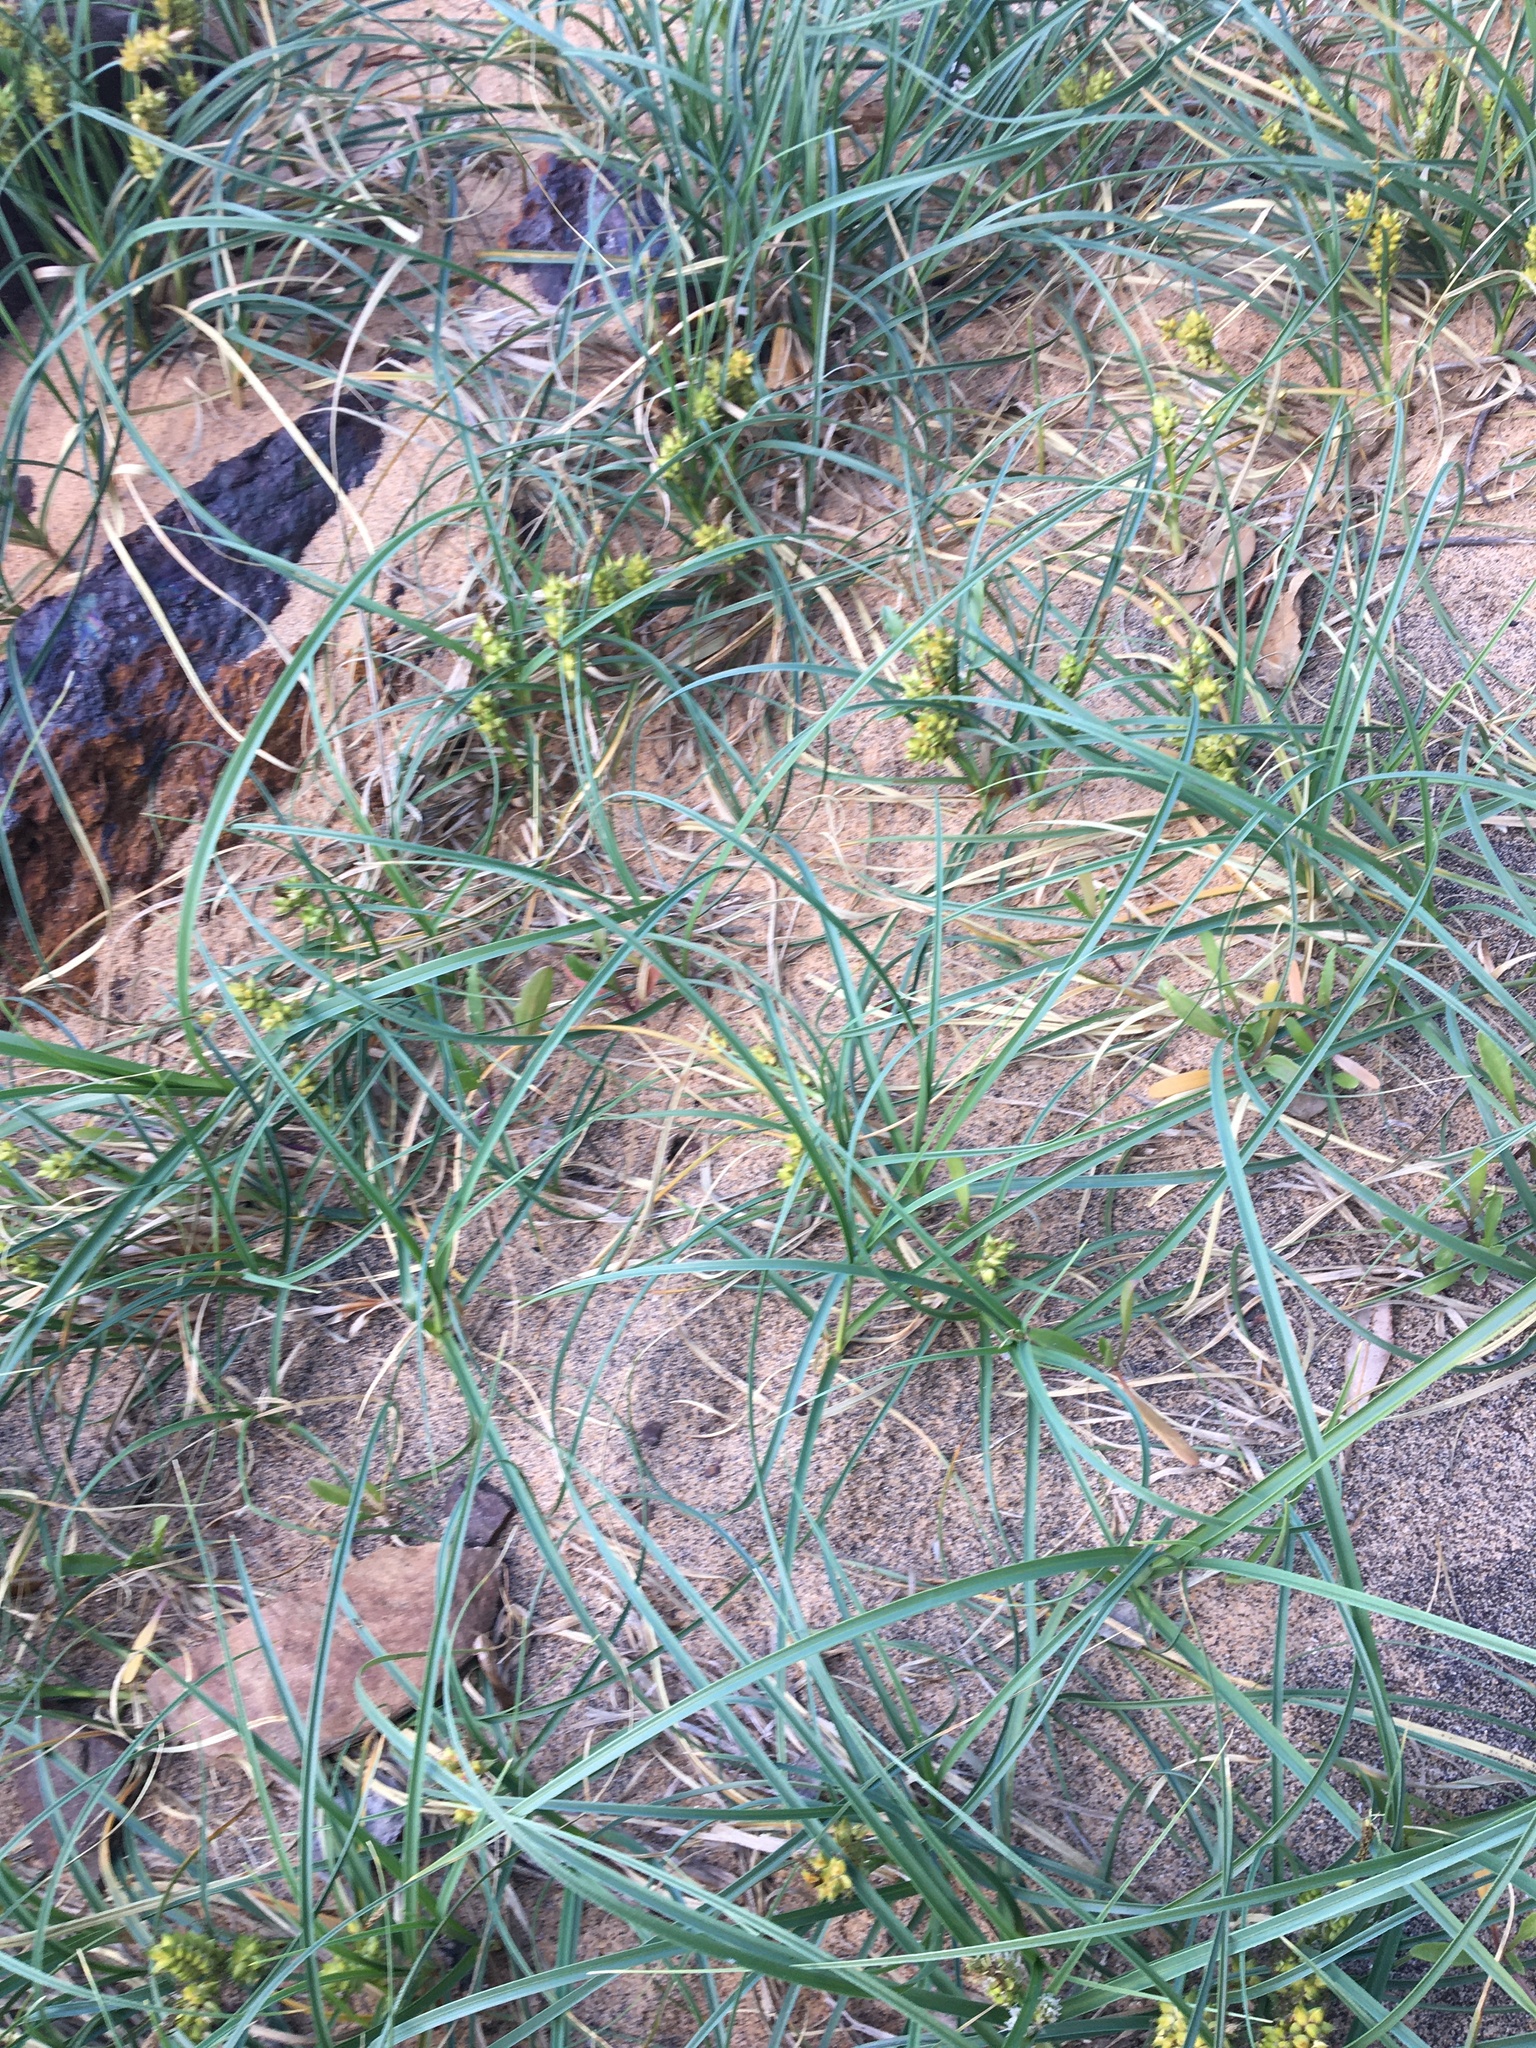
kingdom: Plantae
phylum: Tracheophyta
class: Liliopsida
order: Poales
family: Cyperaceae
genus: Carex
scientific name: Carex pumila
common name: Dwarf sedge
